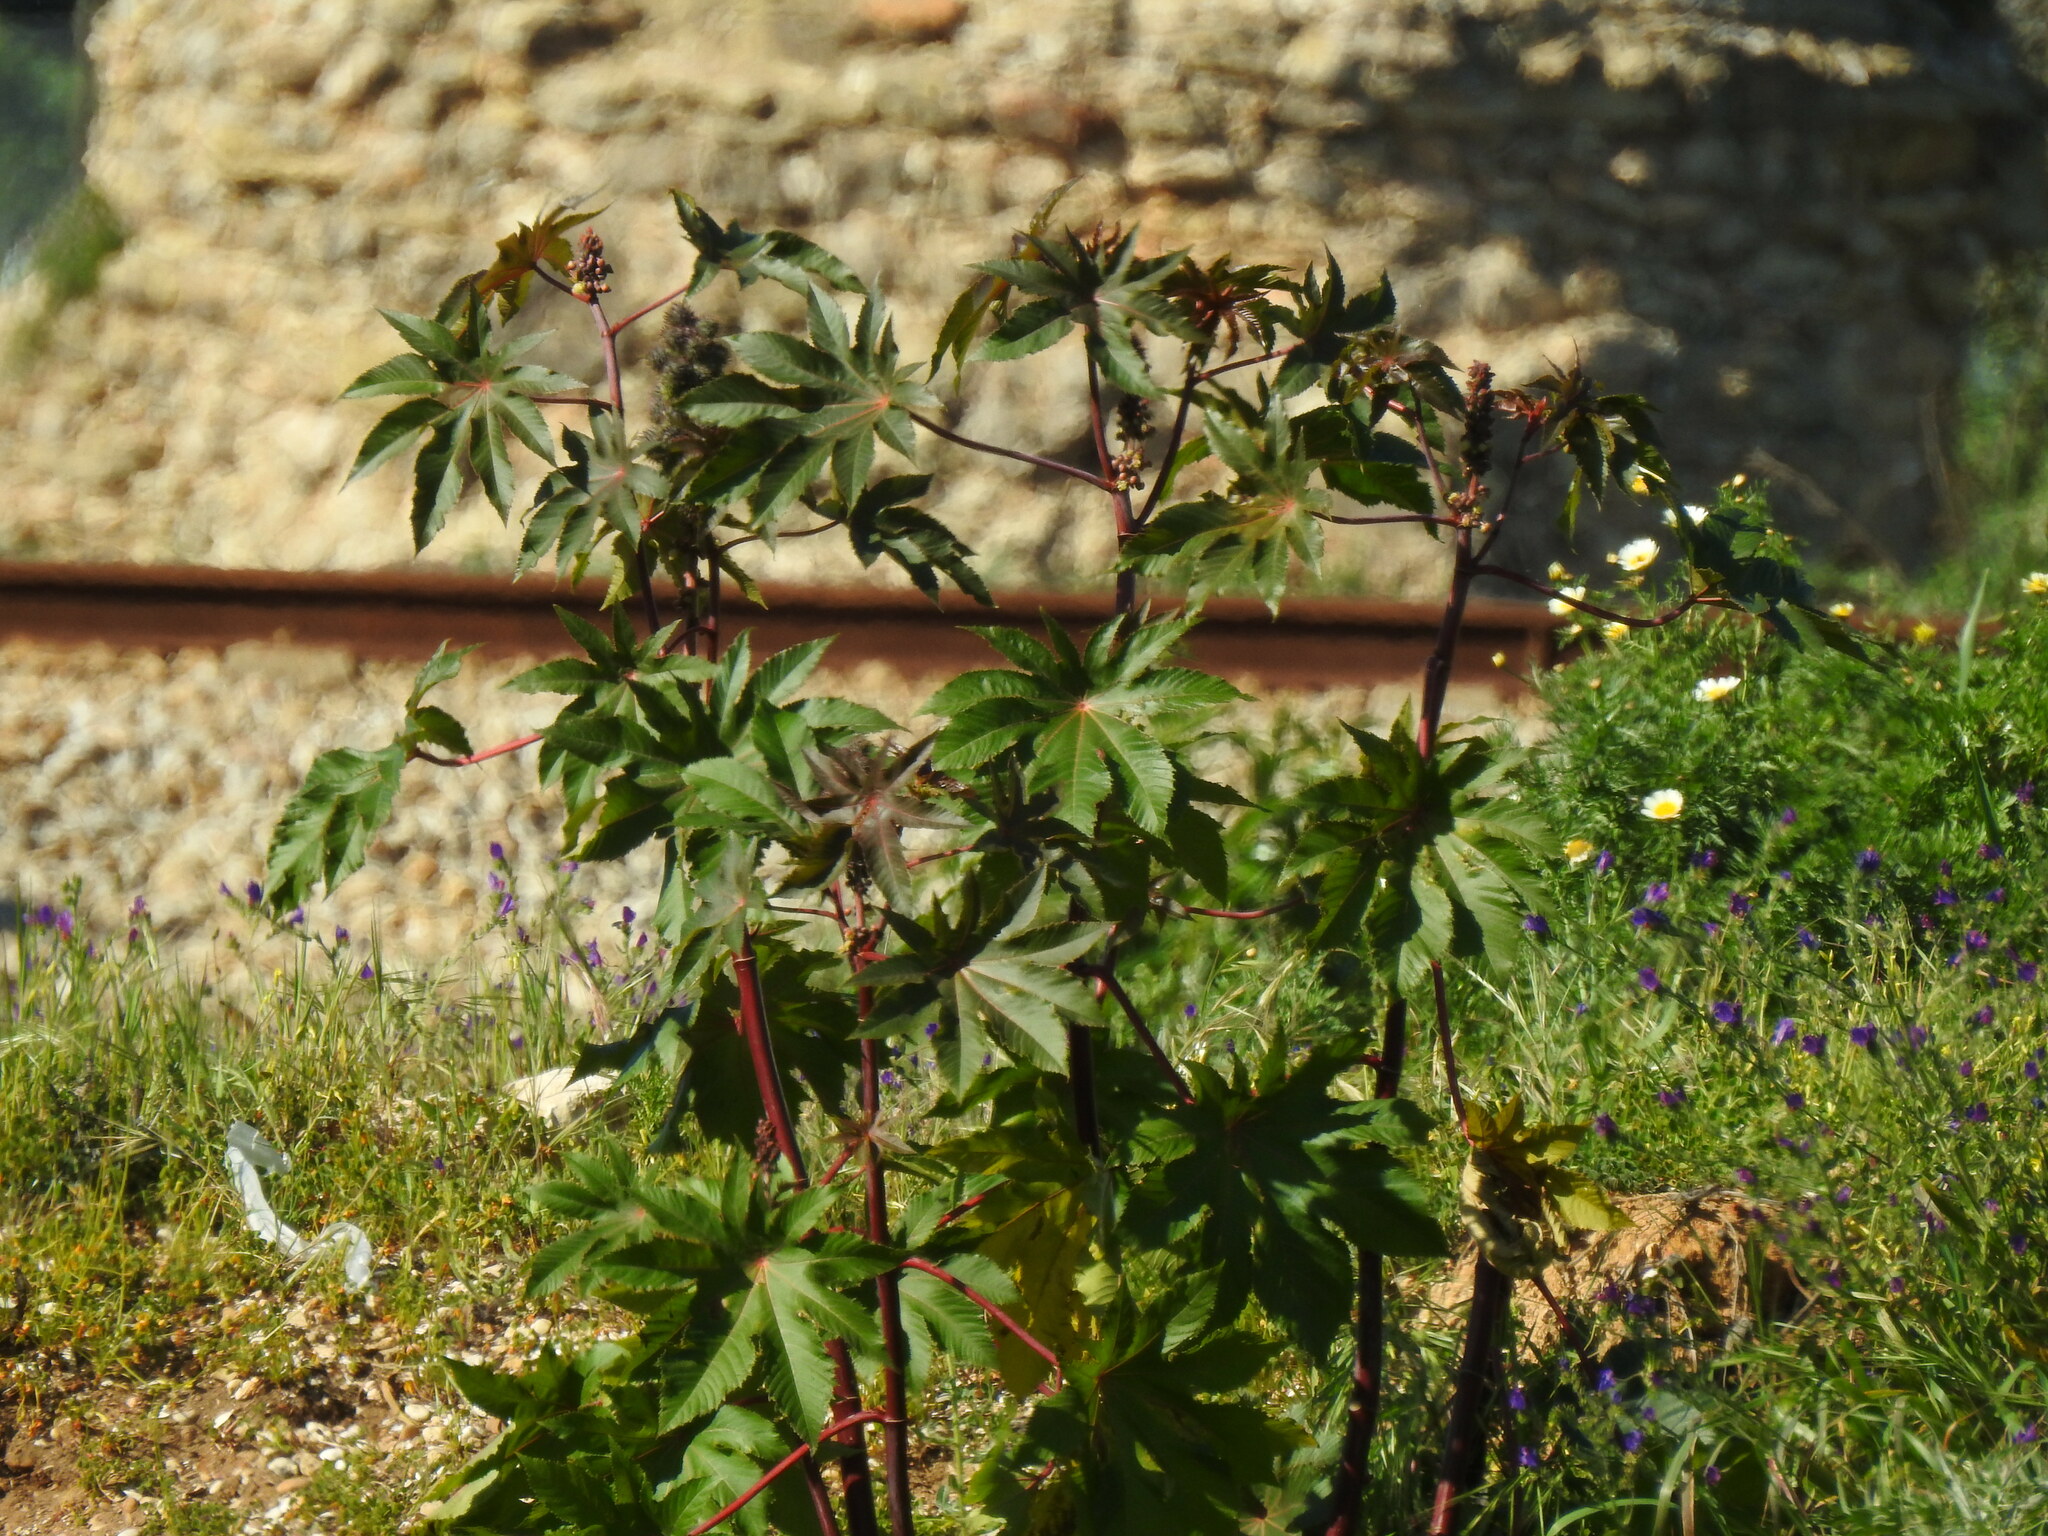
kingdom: Plantae
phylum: Tracheophyta
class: Magnoliopsida
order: Malpighiales
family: Euphorbiaceae
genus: Ricinus
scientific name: Ricinus communis
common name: Castor-oil-plant
